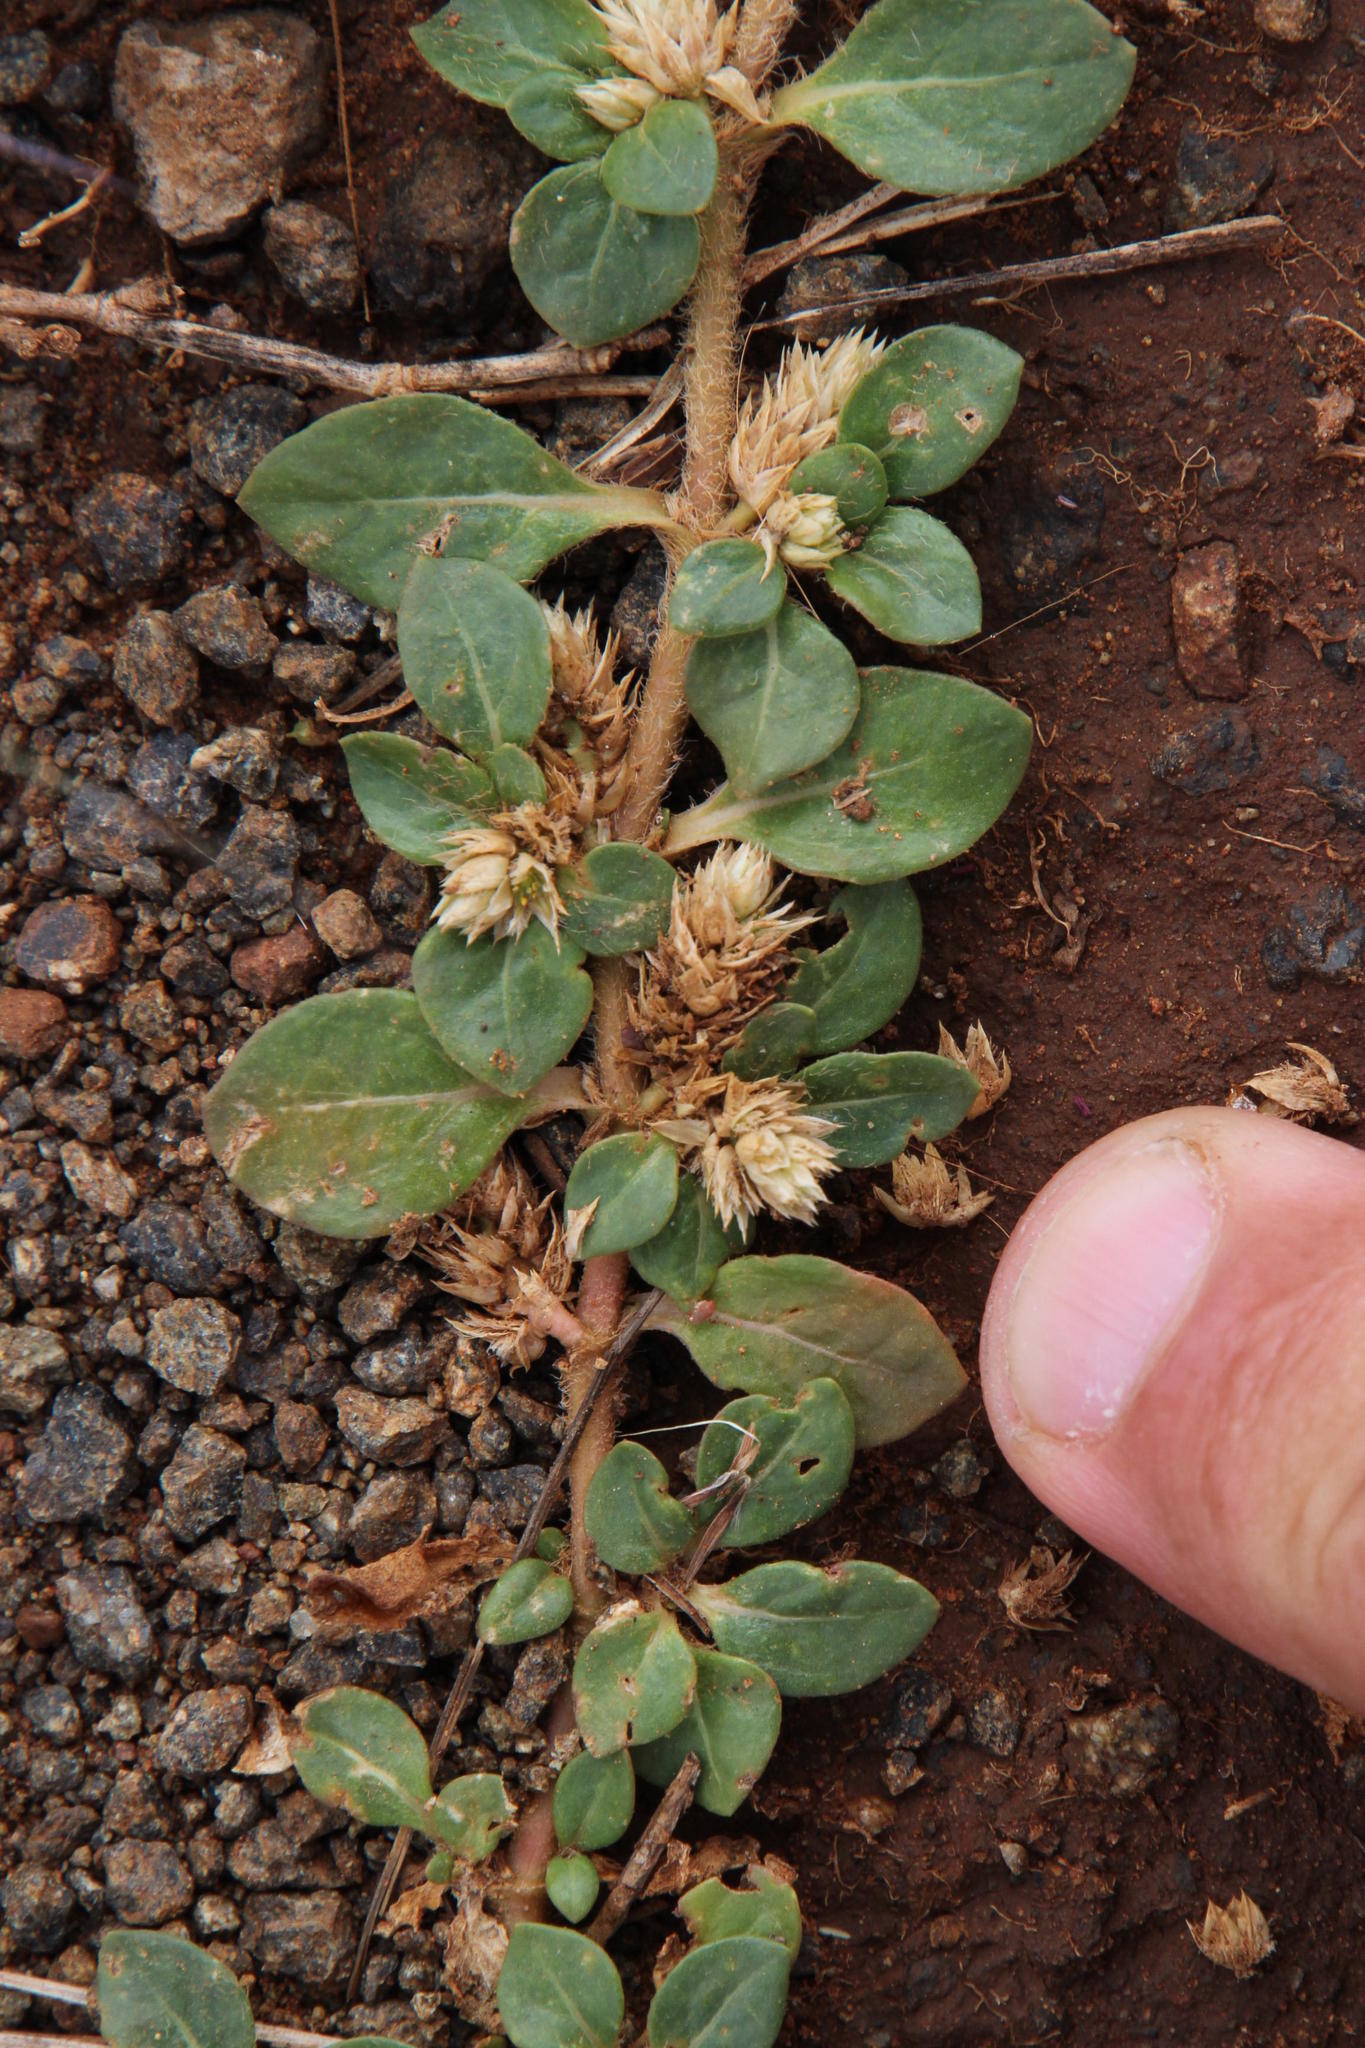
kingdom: Plantae
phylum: Tracheophyta
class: Magnoliopsida
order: Caryophyllales
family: Amaranthaceae
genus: Alternanthera
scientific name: Alternanthera pungens
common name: Khakiweed
